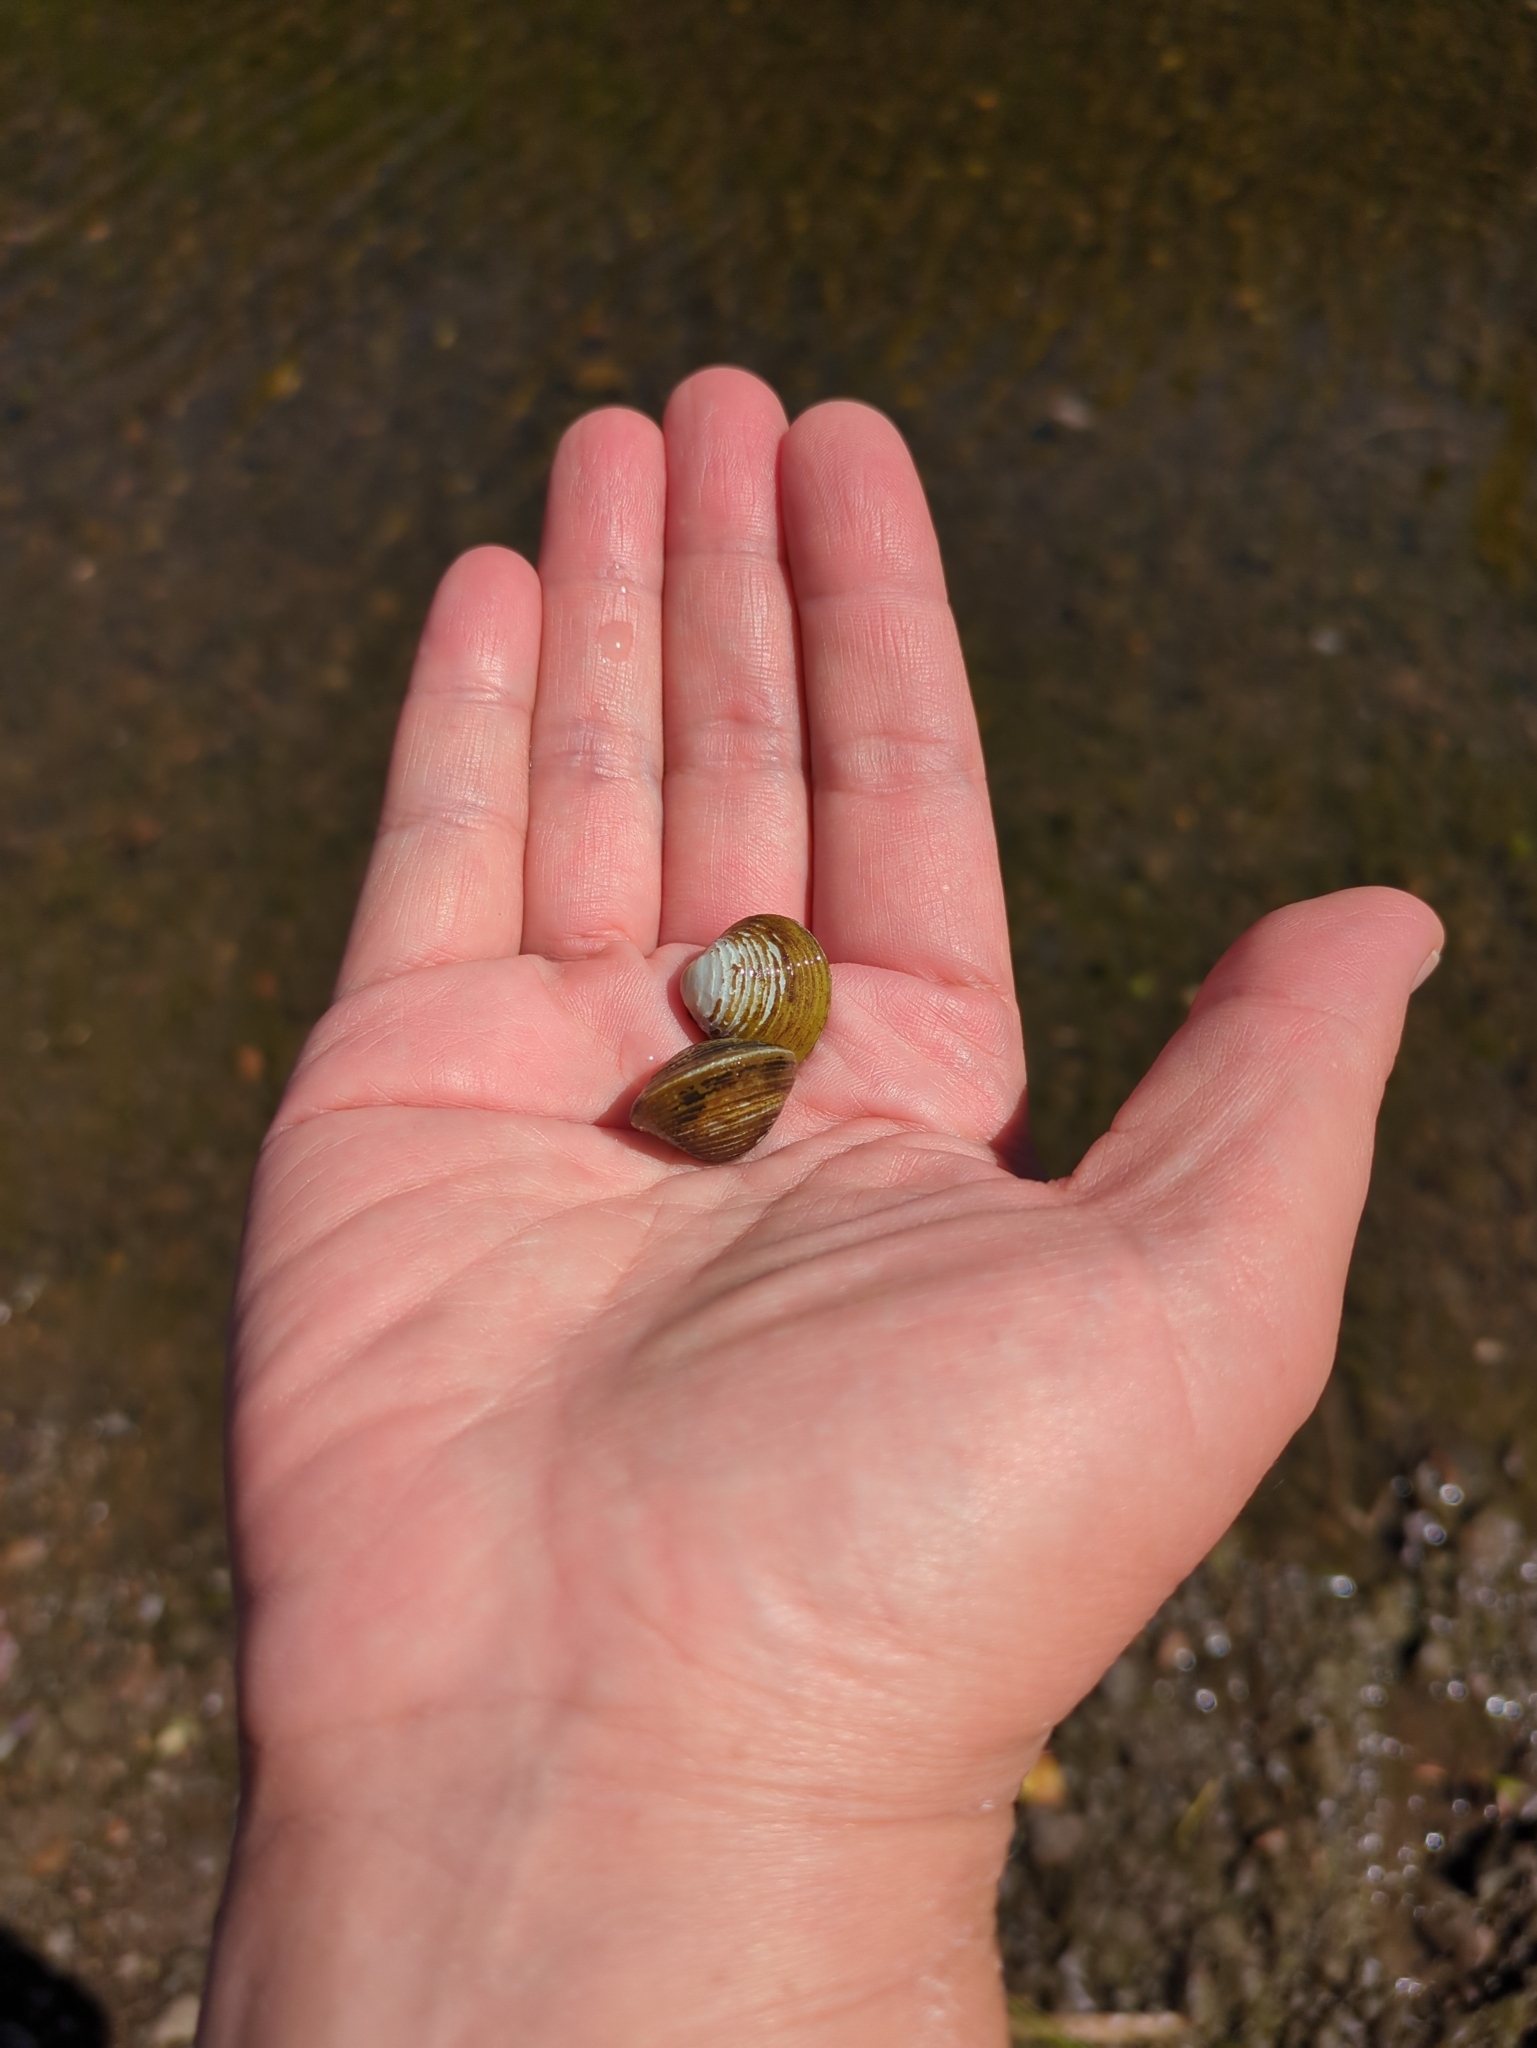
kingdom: Animalia
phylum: Mollusca
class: Bivalvia
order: Venerida
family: Cyrenidae
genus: Corbicula
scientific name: Corbicula fluminea
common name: Asian clam
